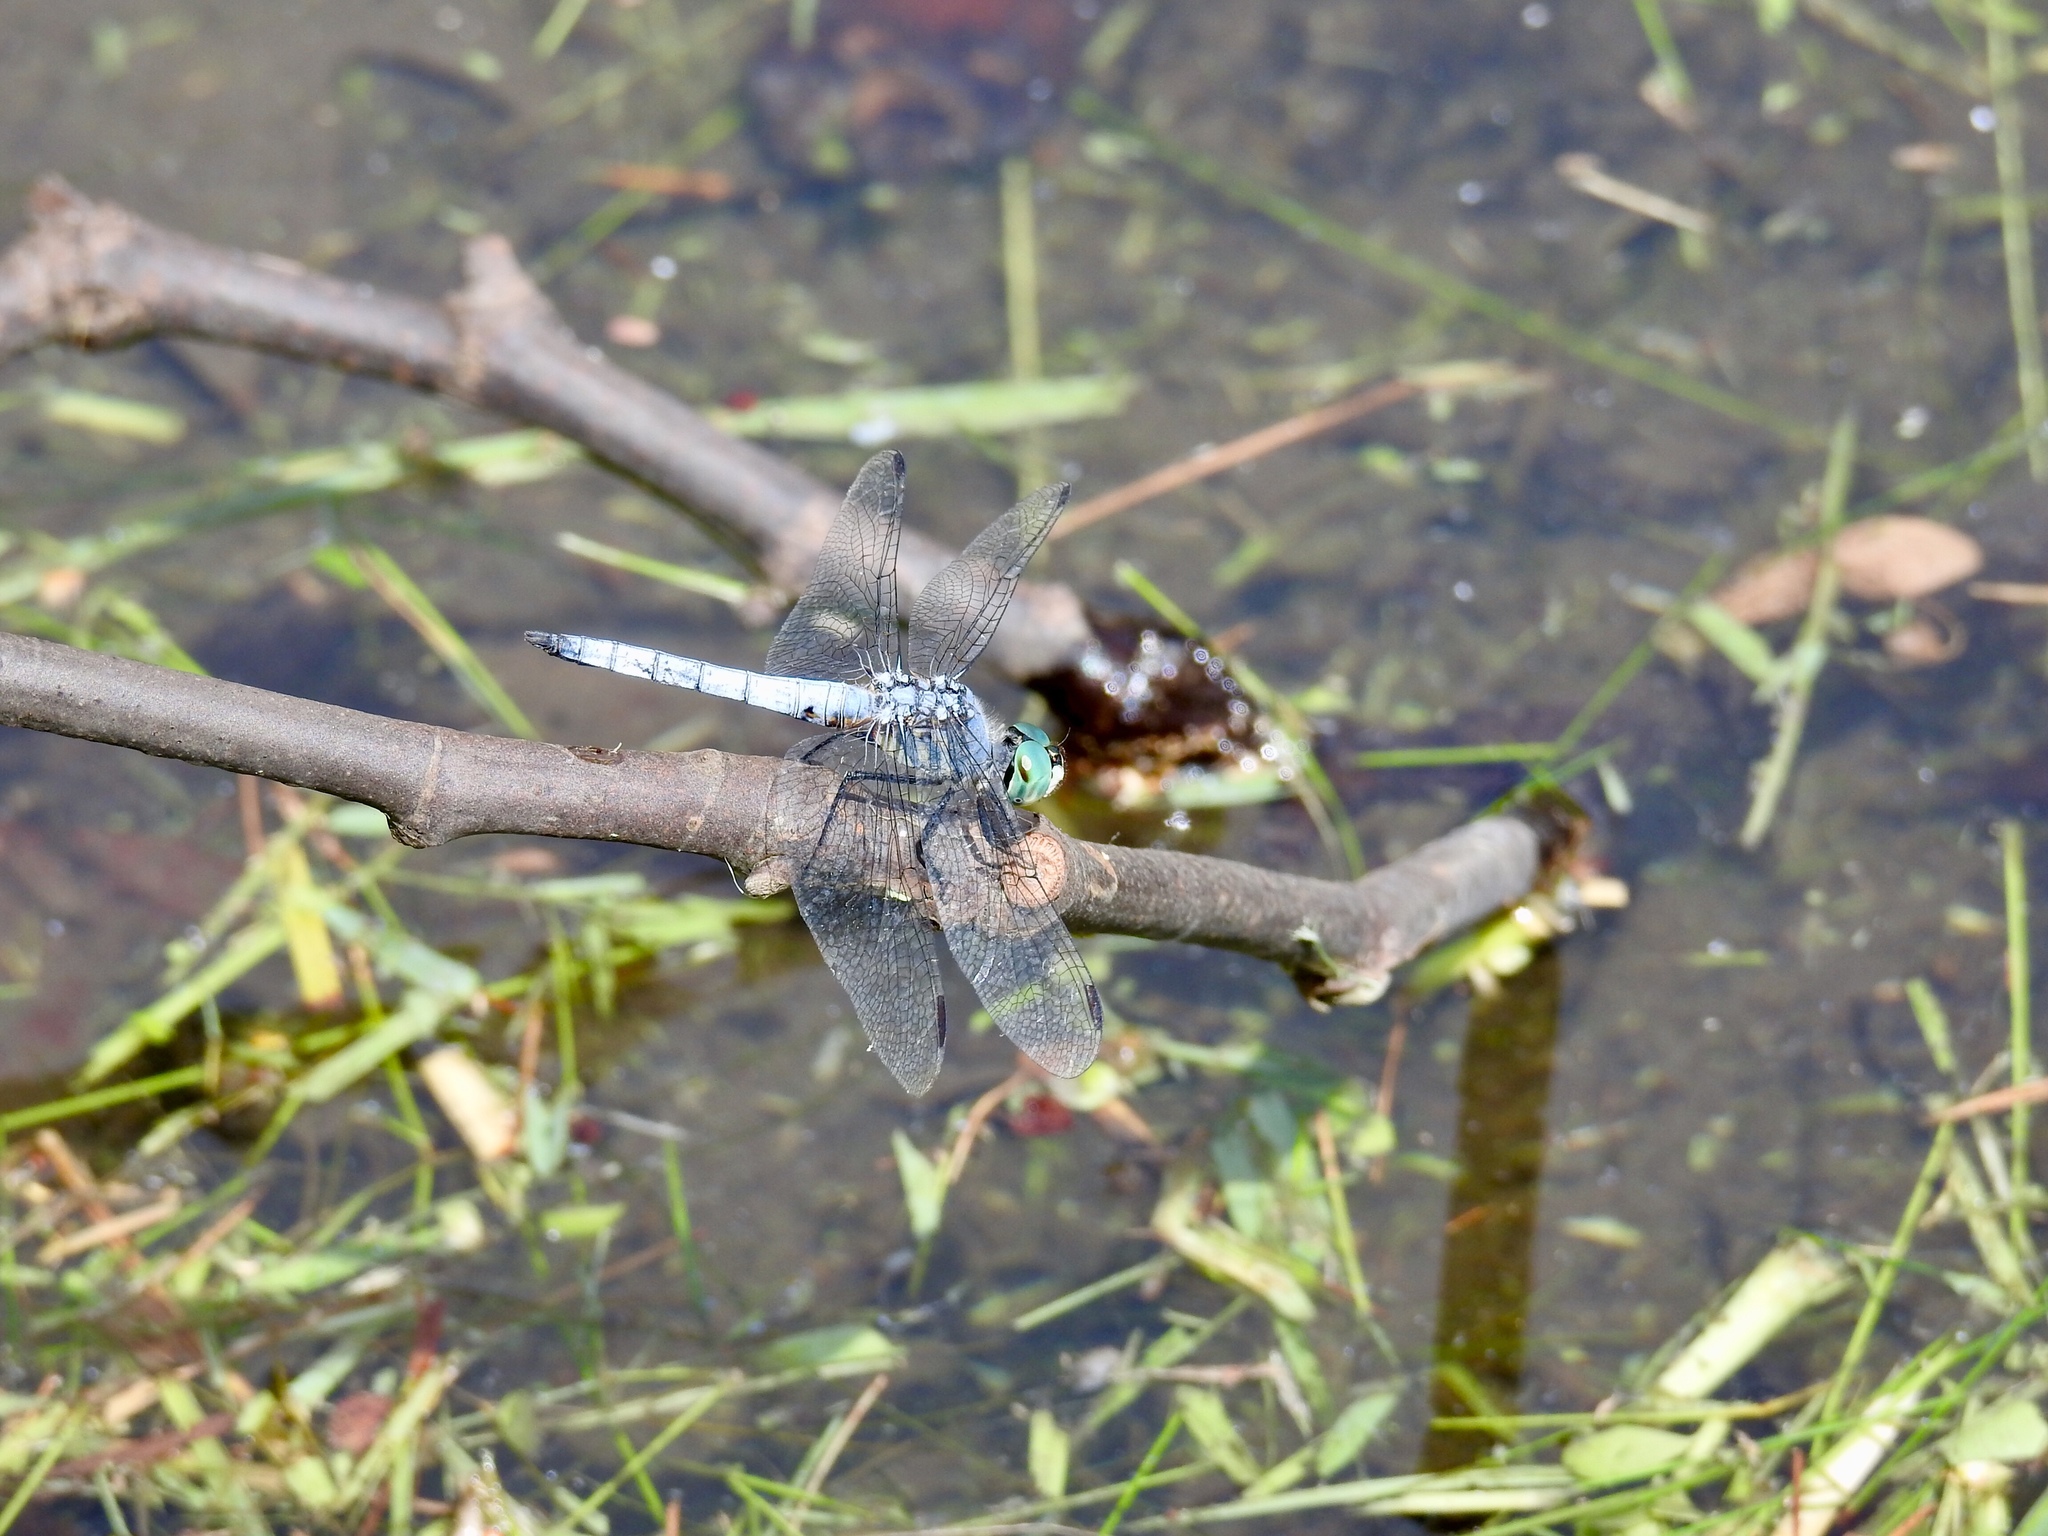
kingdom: Animalia
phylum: Arthropoda
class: Insecta
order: Odonata
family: Libellulidae
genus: Pachydiplax
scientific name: Pachydiplax longipennis
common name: Blue dasher
